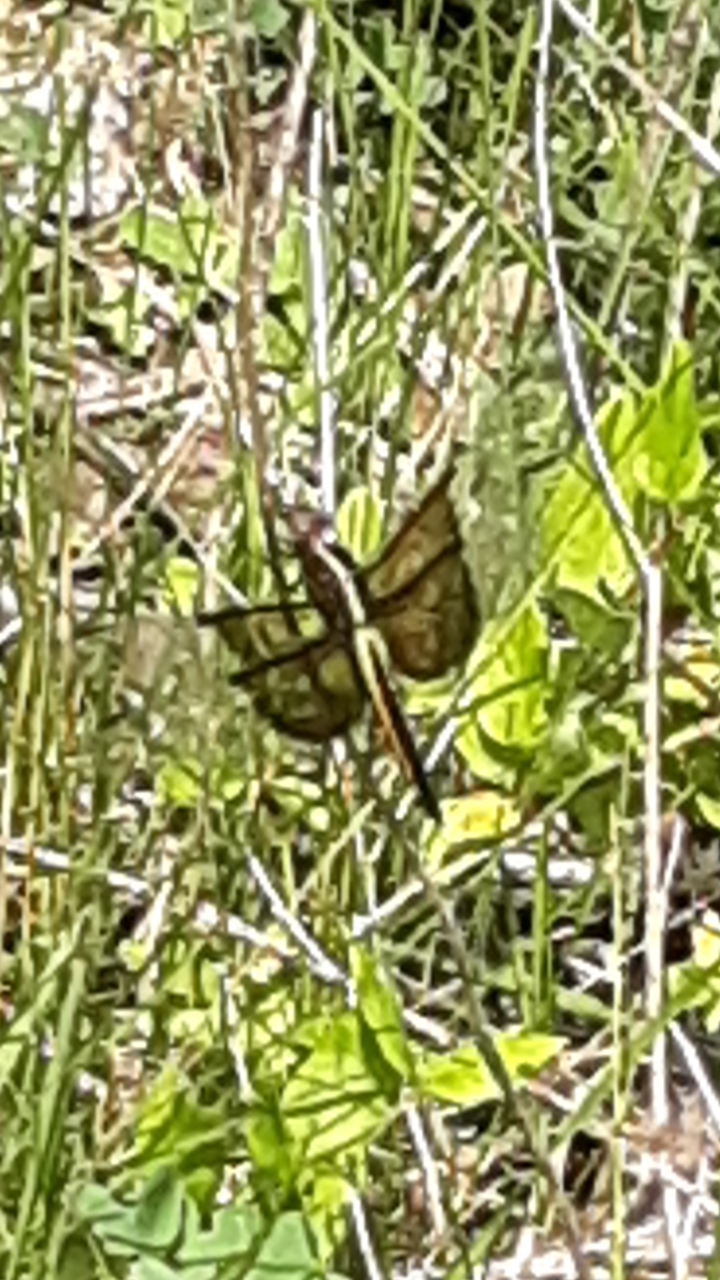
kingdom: Animalia
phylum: Arthropoda
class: Insecta
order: Odonata
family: Libellulidae
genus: Libellula
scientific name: Libellula luctuosa
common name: Widow skimmer
